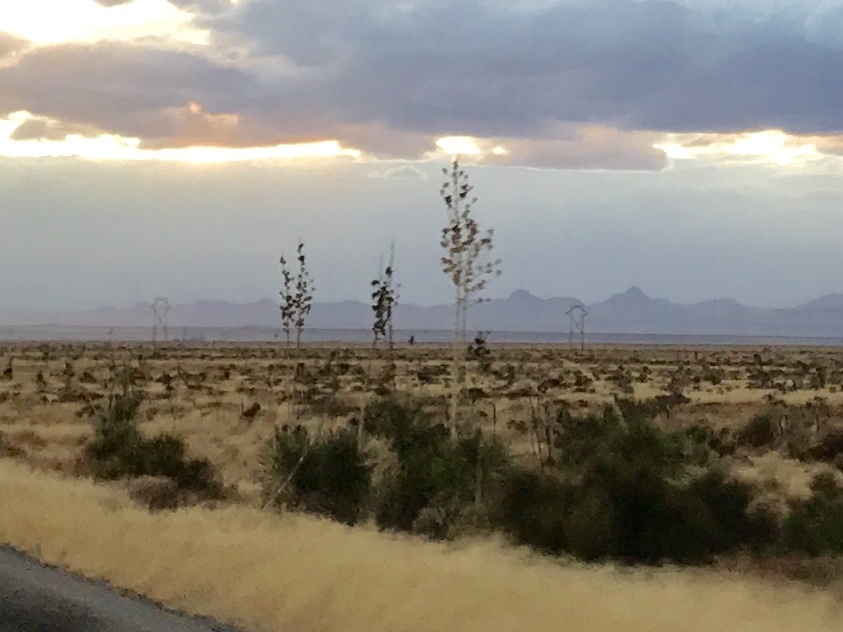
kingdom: Plantae
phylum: Tracheophyta
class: Liliopsida
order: Asparagales
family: Asparagaceae
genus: Yucca
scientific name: Yucca elata
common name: Palmella
